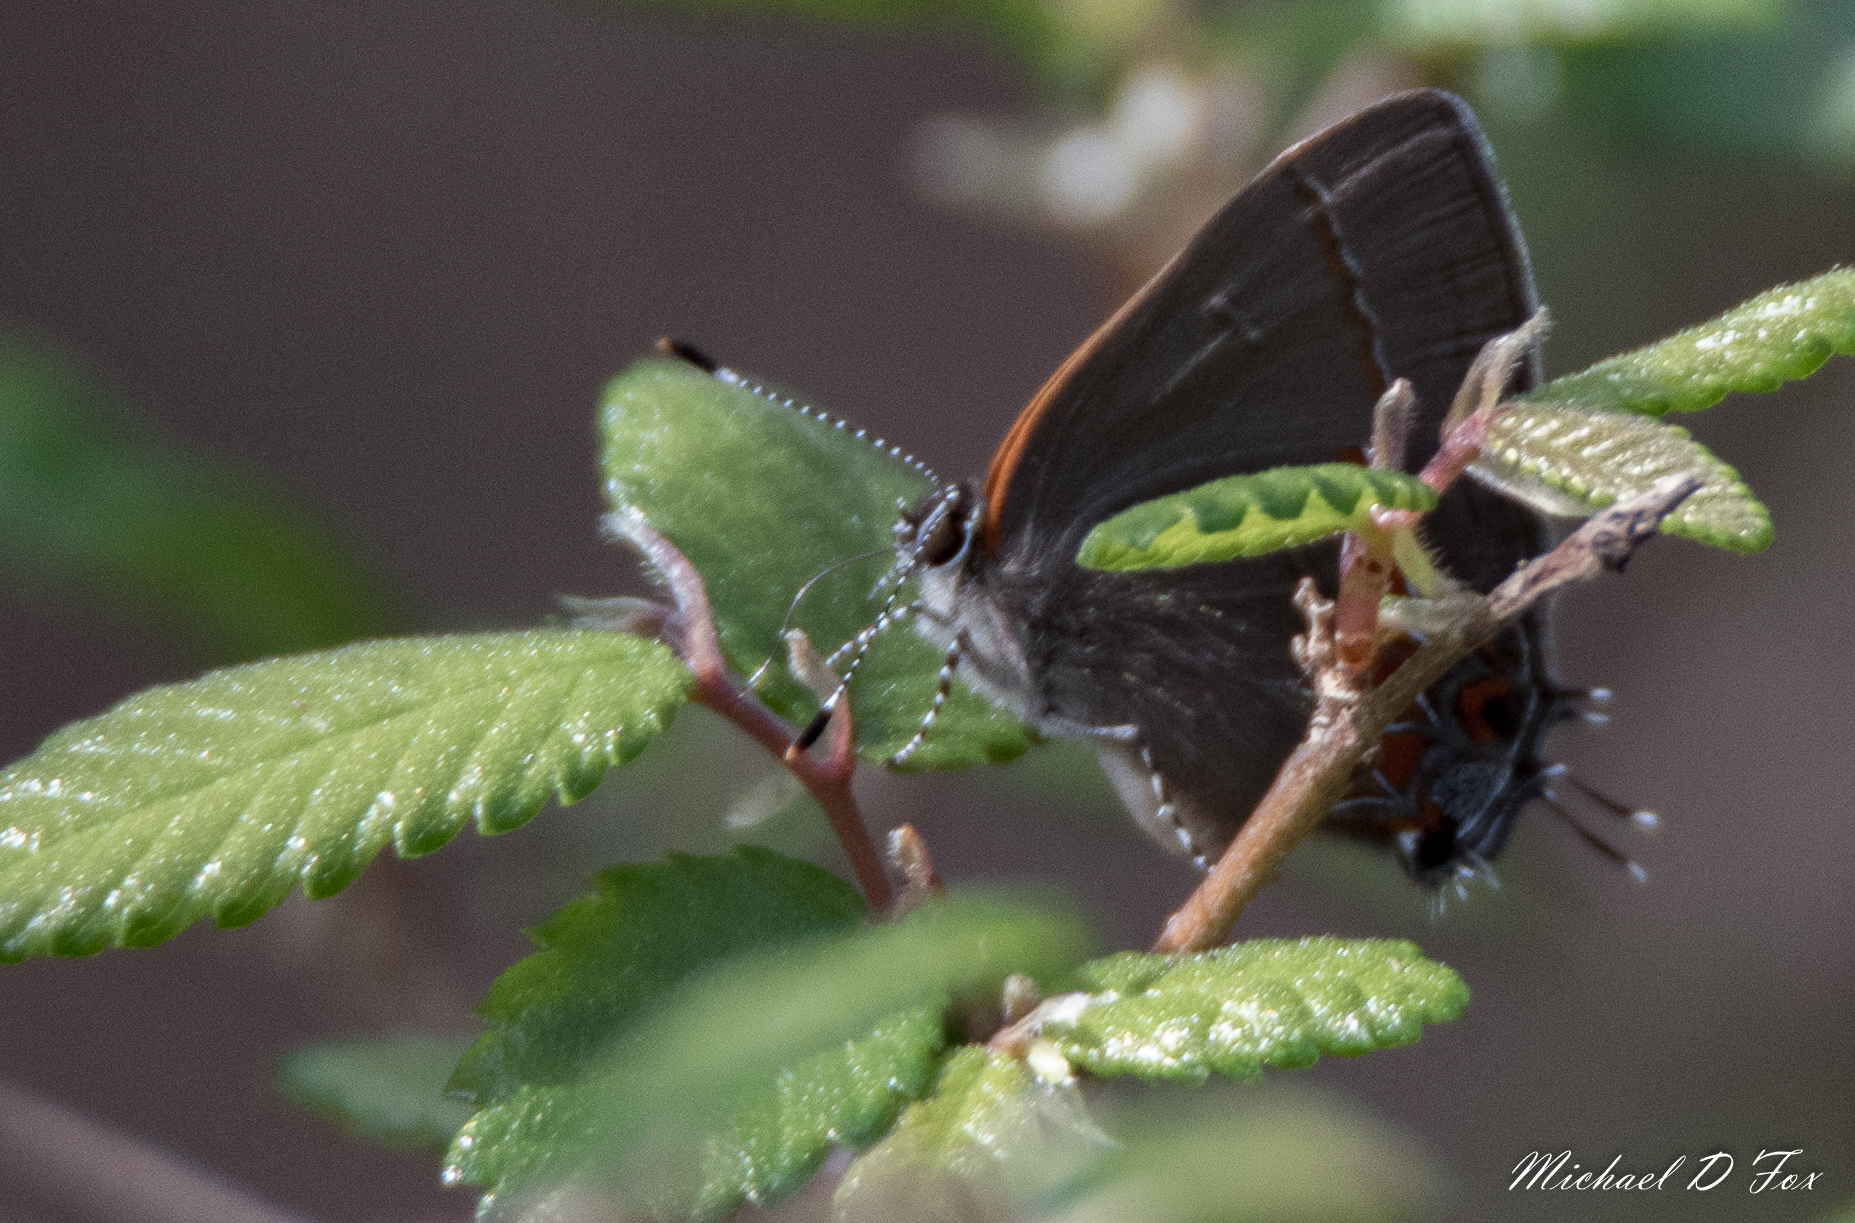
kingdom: Animalia
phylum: Arthropoda
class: Insecta
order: Lepidoptera
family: Lycaenidae
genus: Calycopis
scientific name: Calycopis cecrops
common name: Red-banded hairstreak
